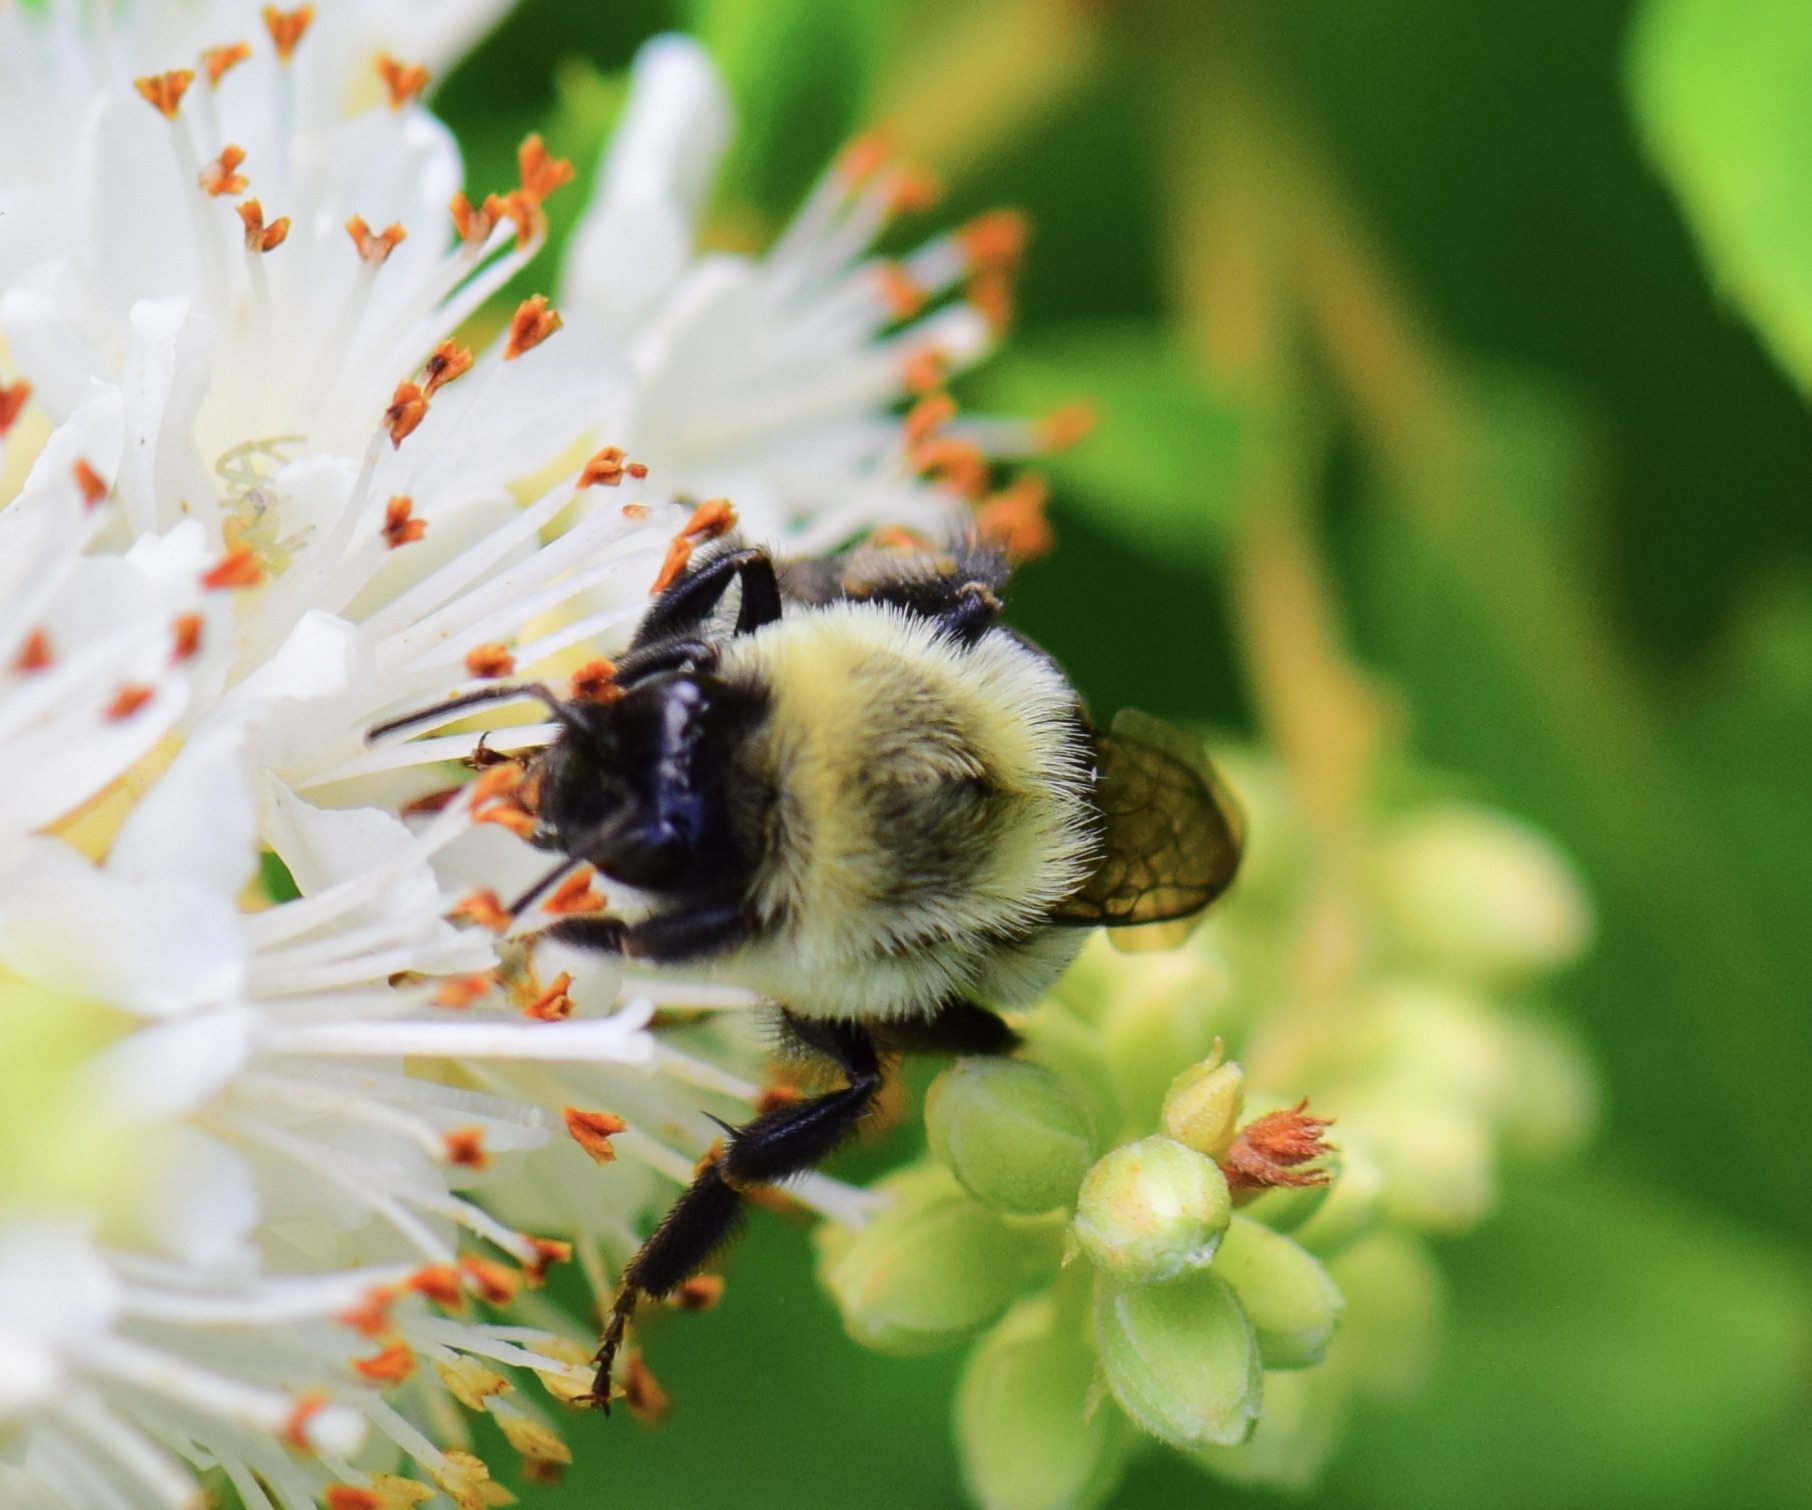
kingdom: Animalia
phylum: Arthropoda
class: Insecta
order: Hymenoptera
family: Apidae
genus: Bombus
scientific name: Bombus impatiens
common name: Common eastern bumble bee
